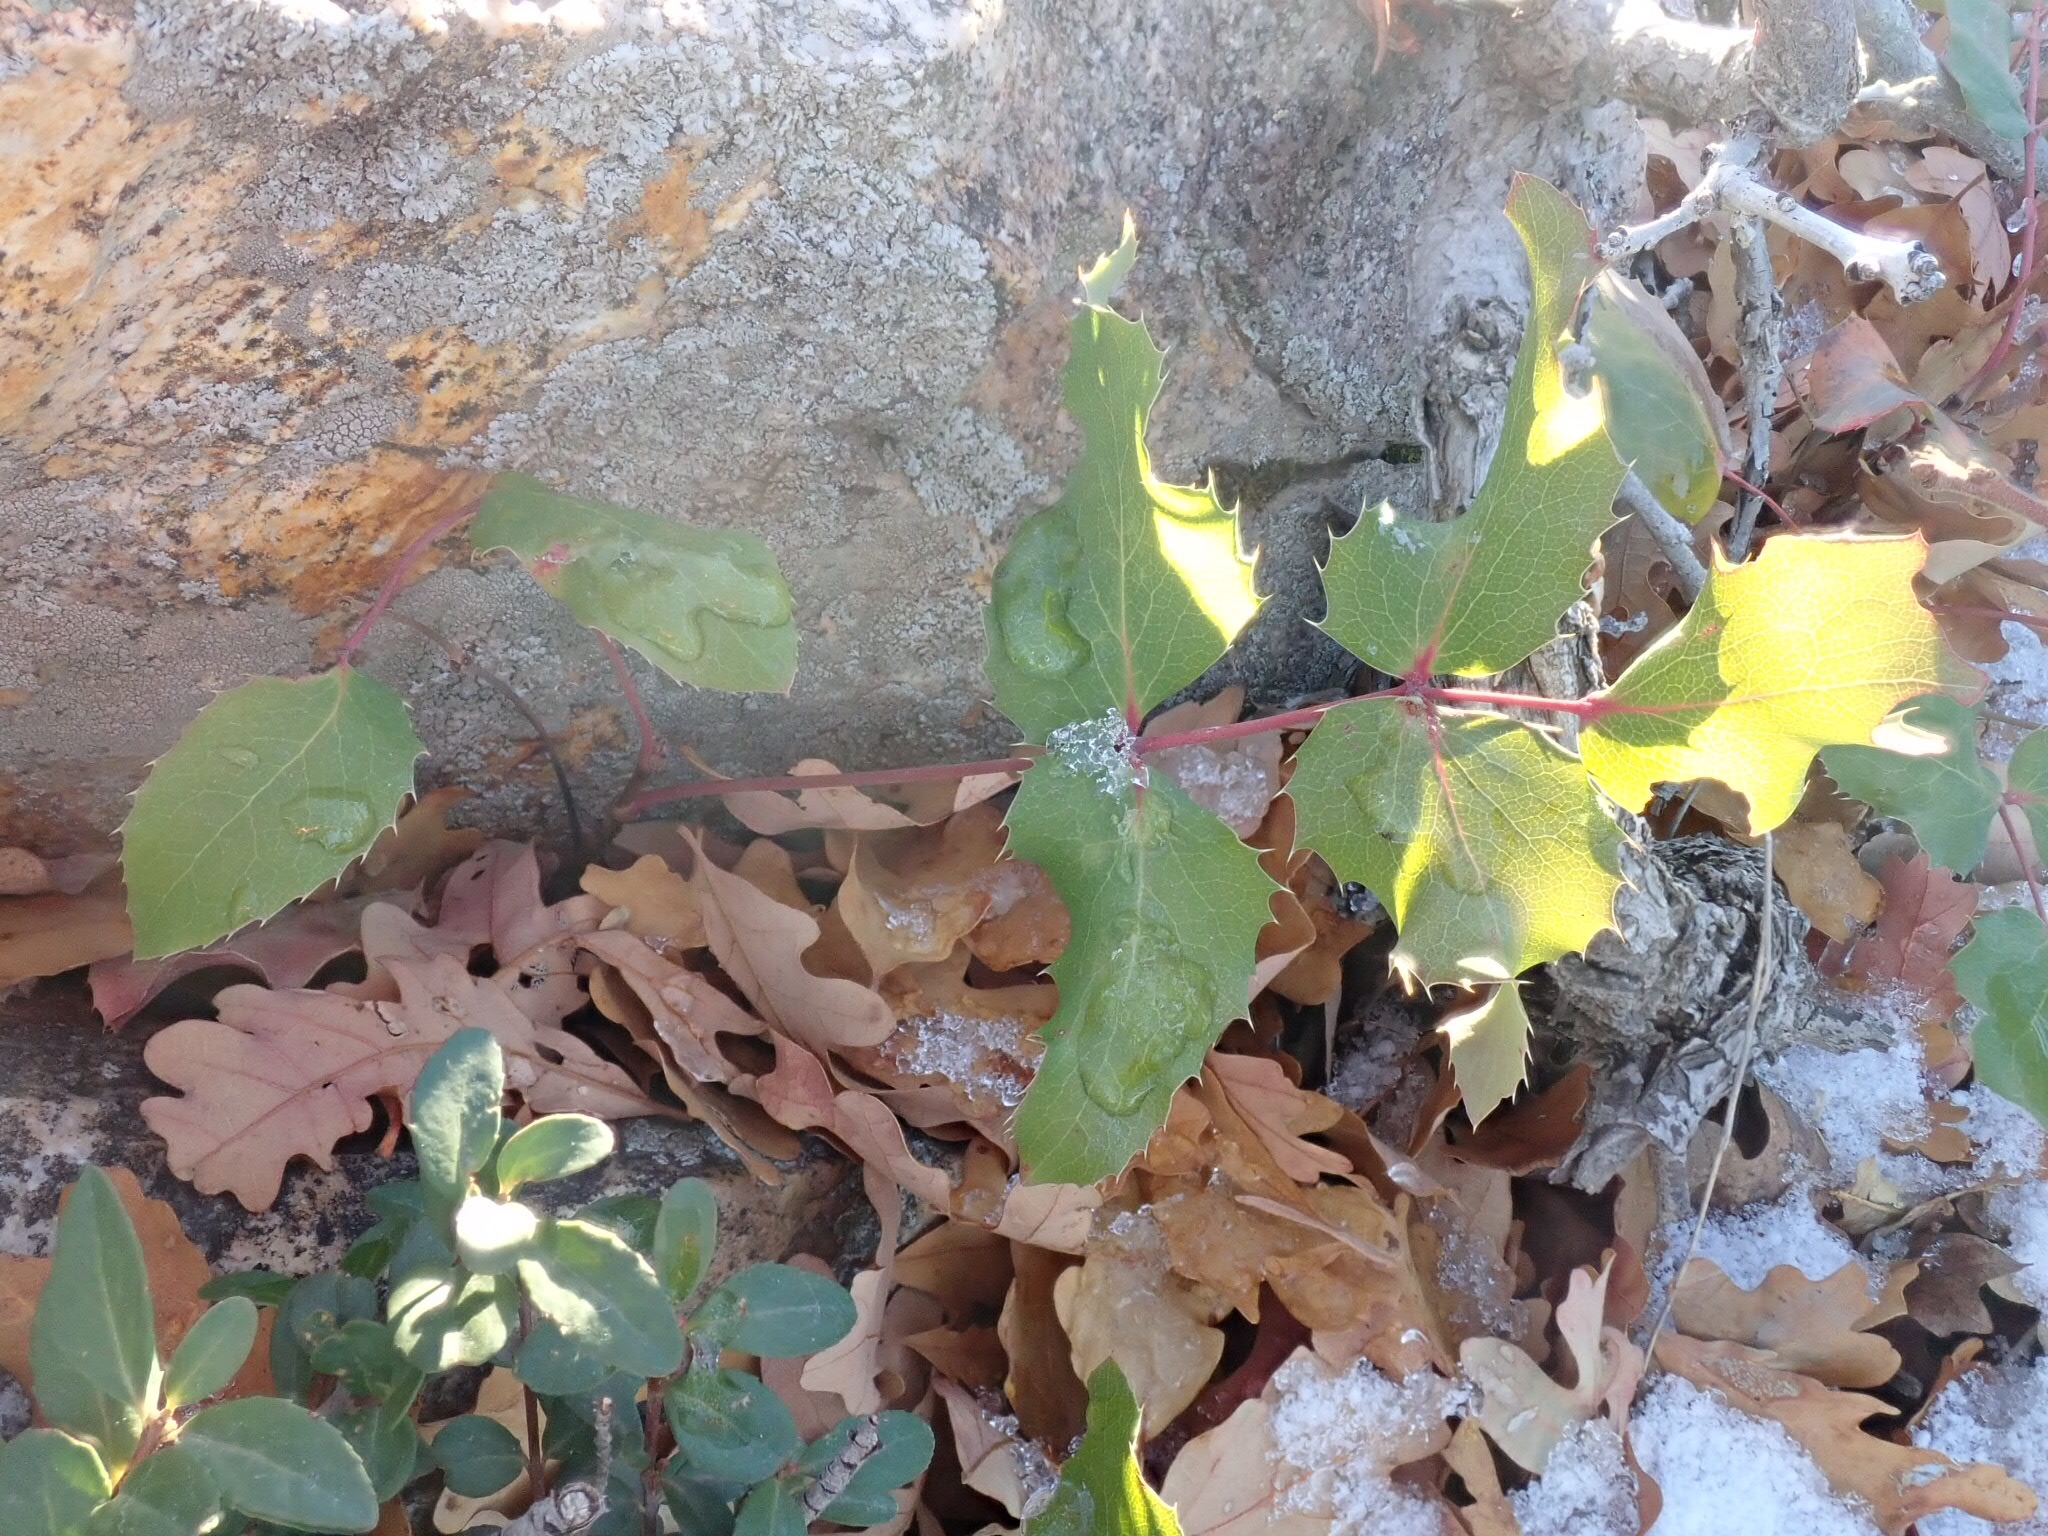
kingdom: Plantae
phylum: Tracheophyta
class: Magnoliopsida
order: Ranunculales
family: Berberidaceae
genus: Mahonia
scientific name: Mahonia repens
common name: Creeping oregon-grape
